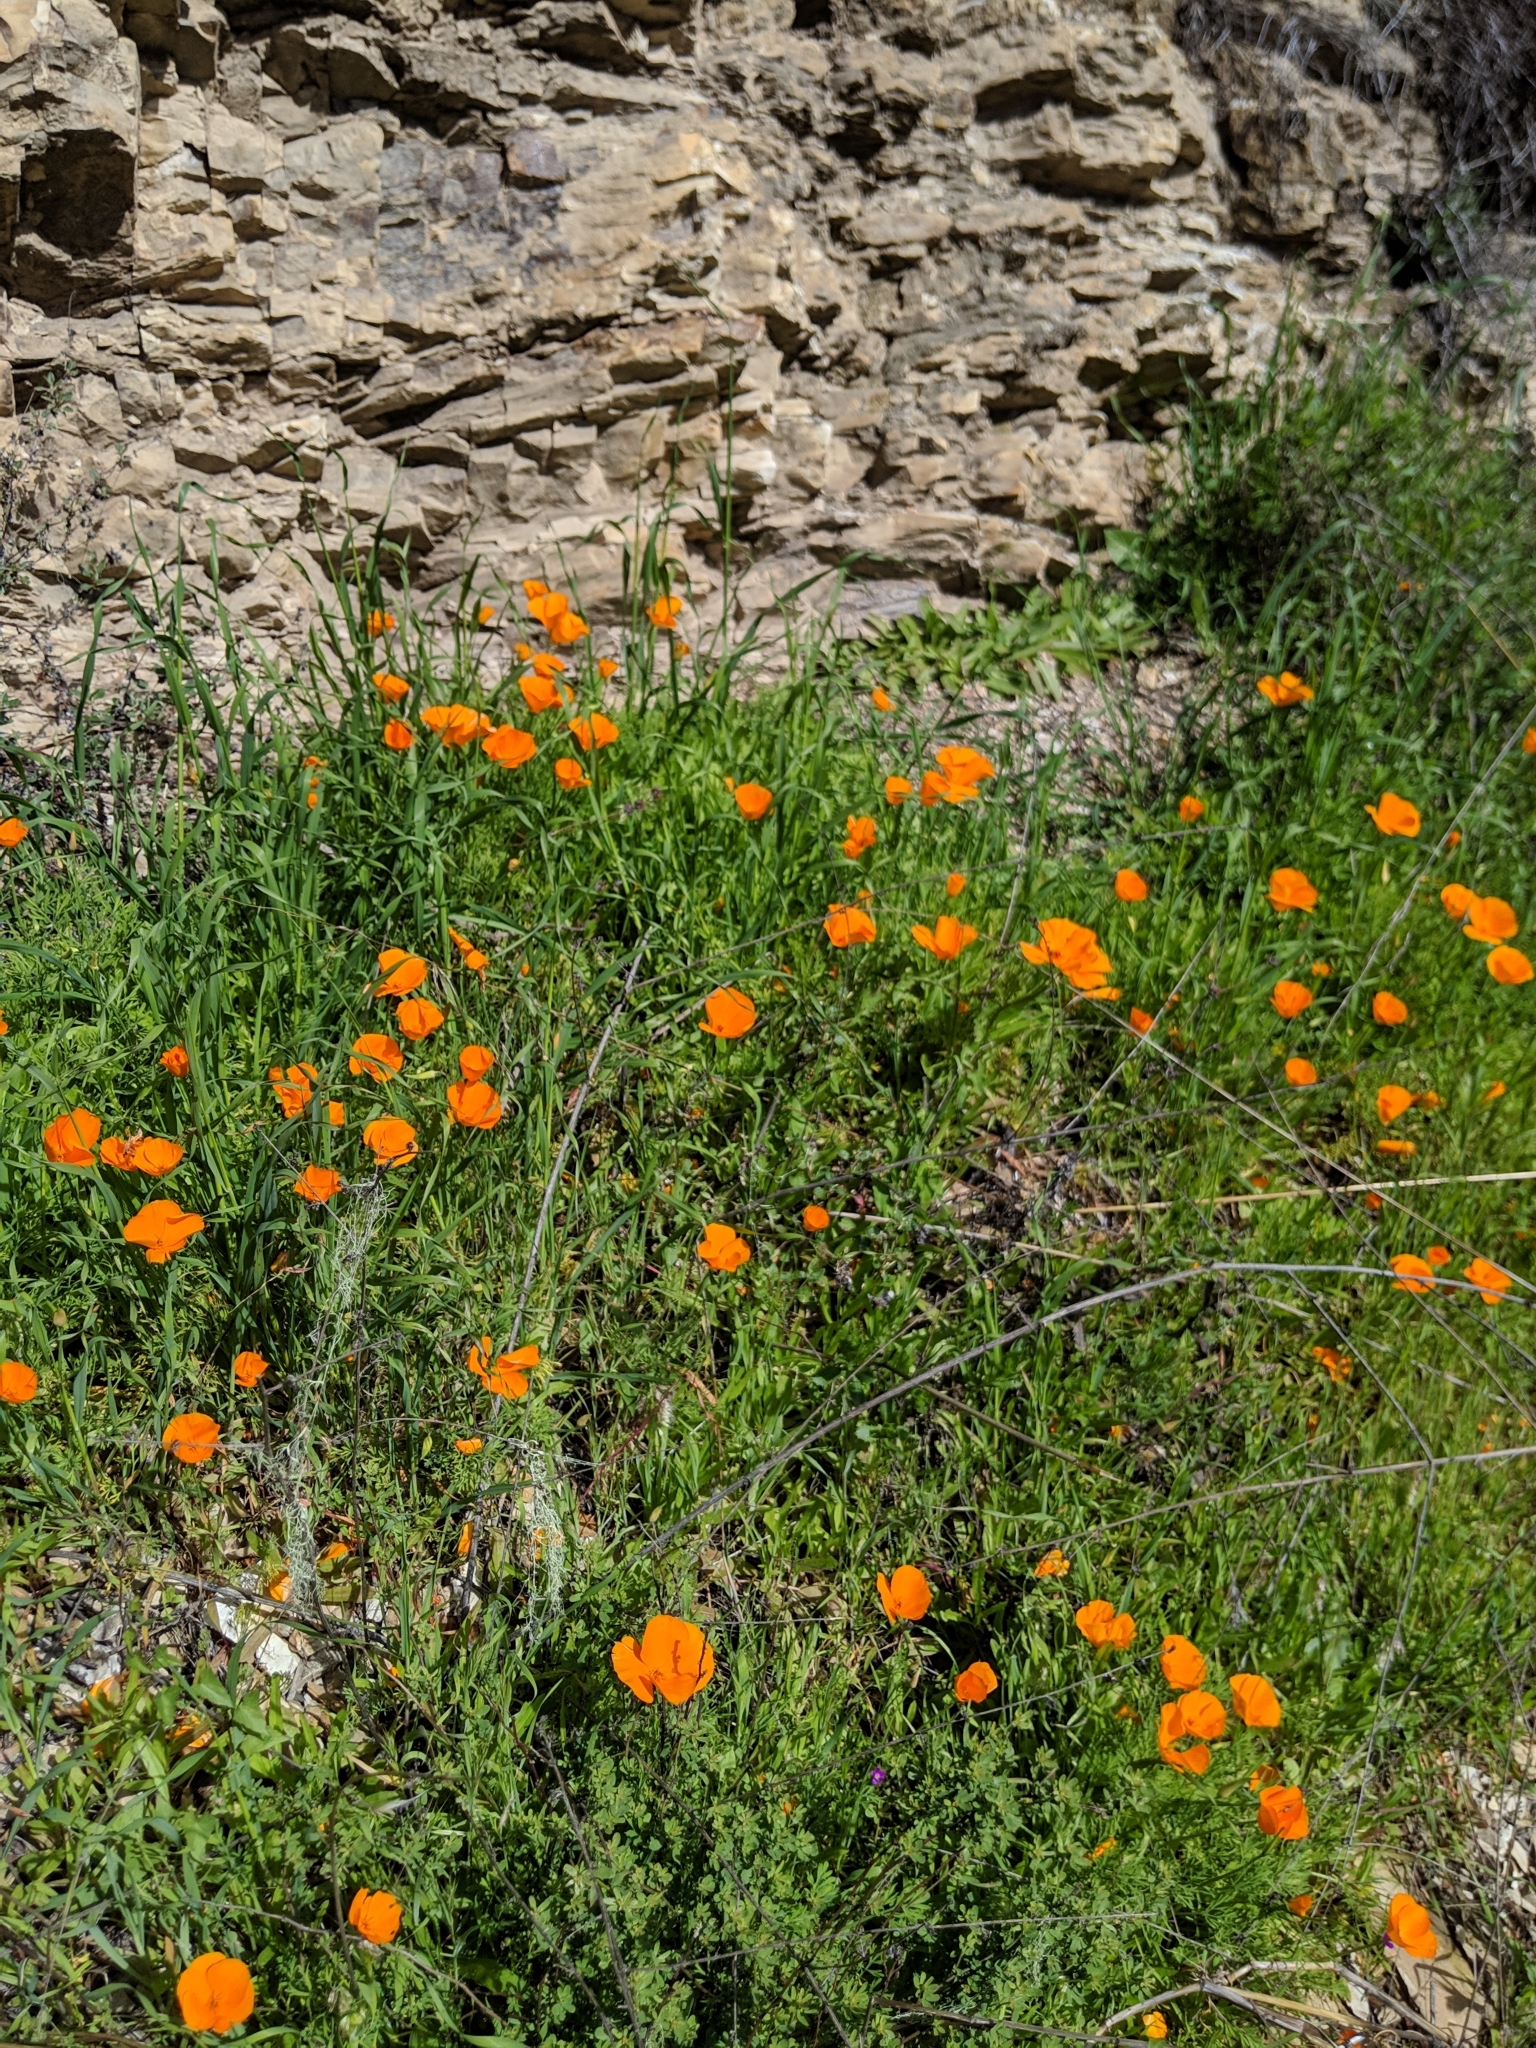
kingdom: Plantae
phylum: Tracheophyta
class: Magnoliopsida
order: Ranunculales
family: Papaveraceae
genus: Eschscholzia
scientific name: Eschscholzia californica
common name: California poppy
